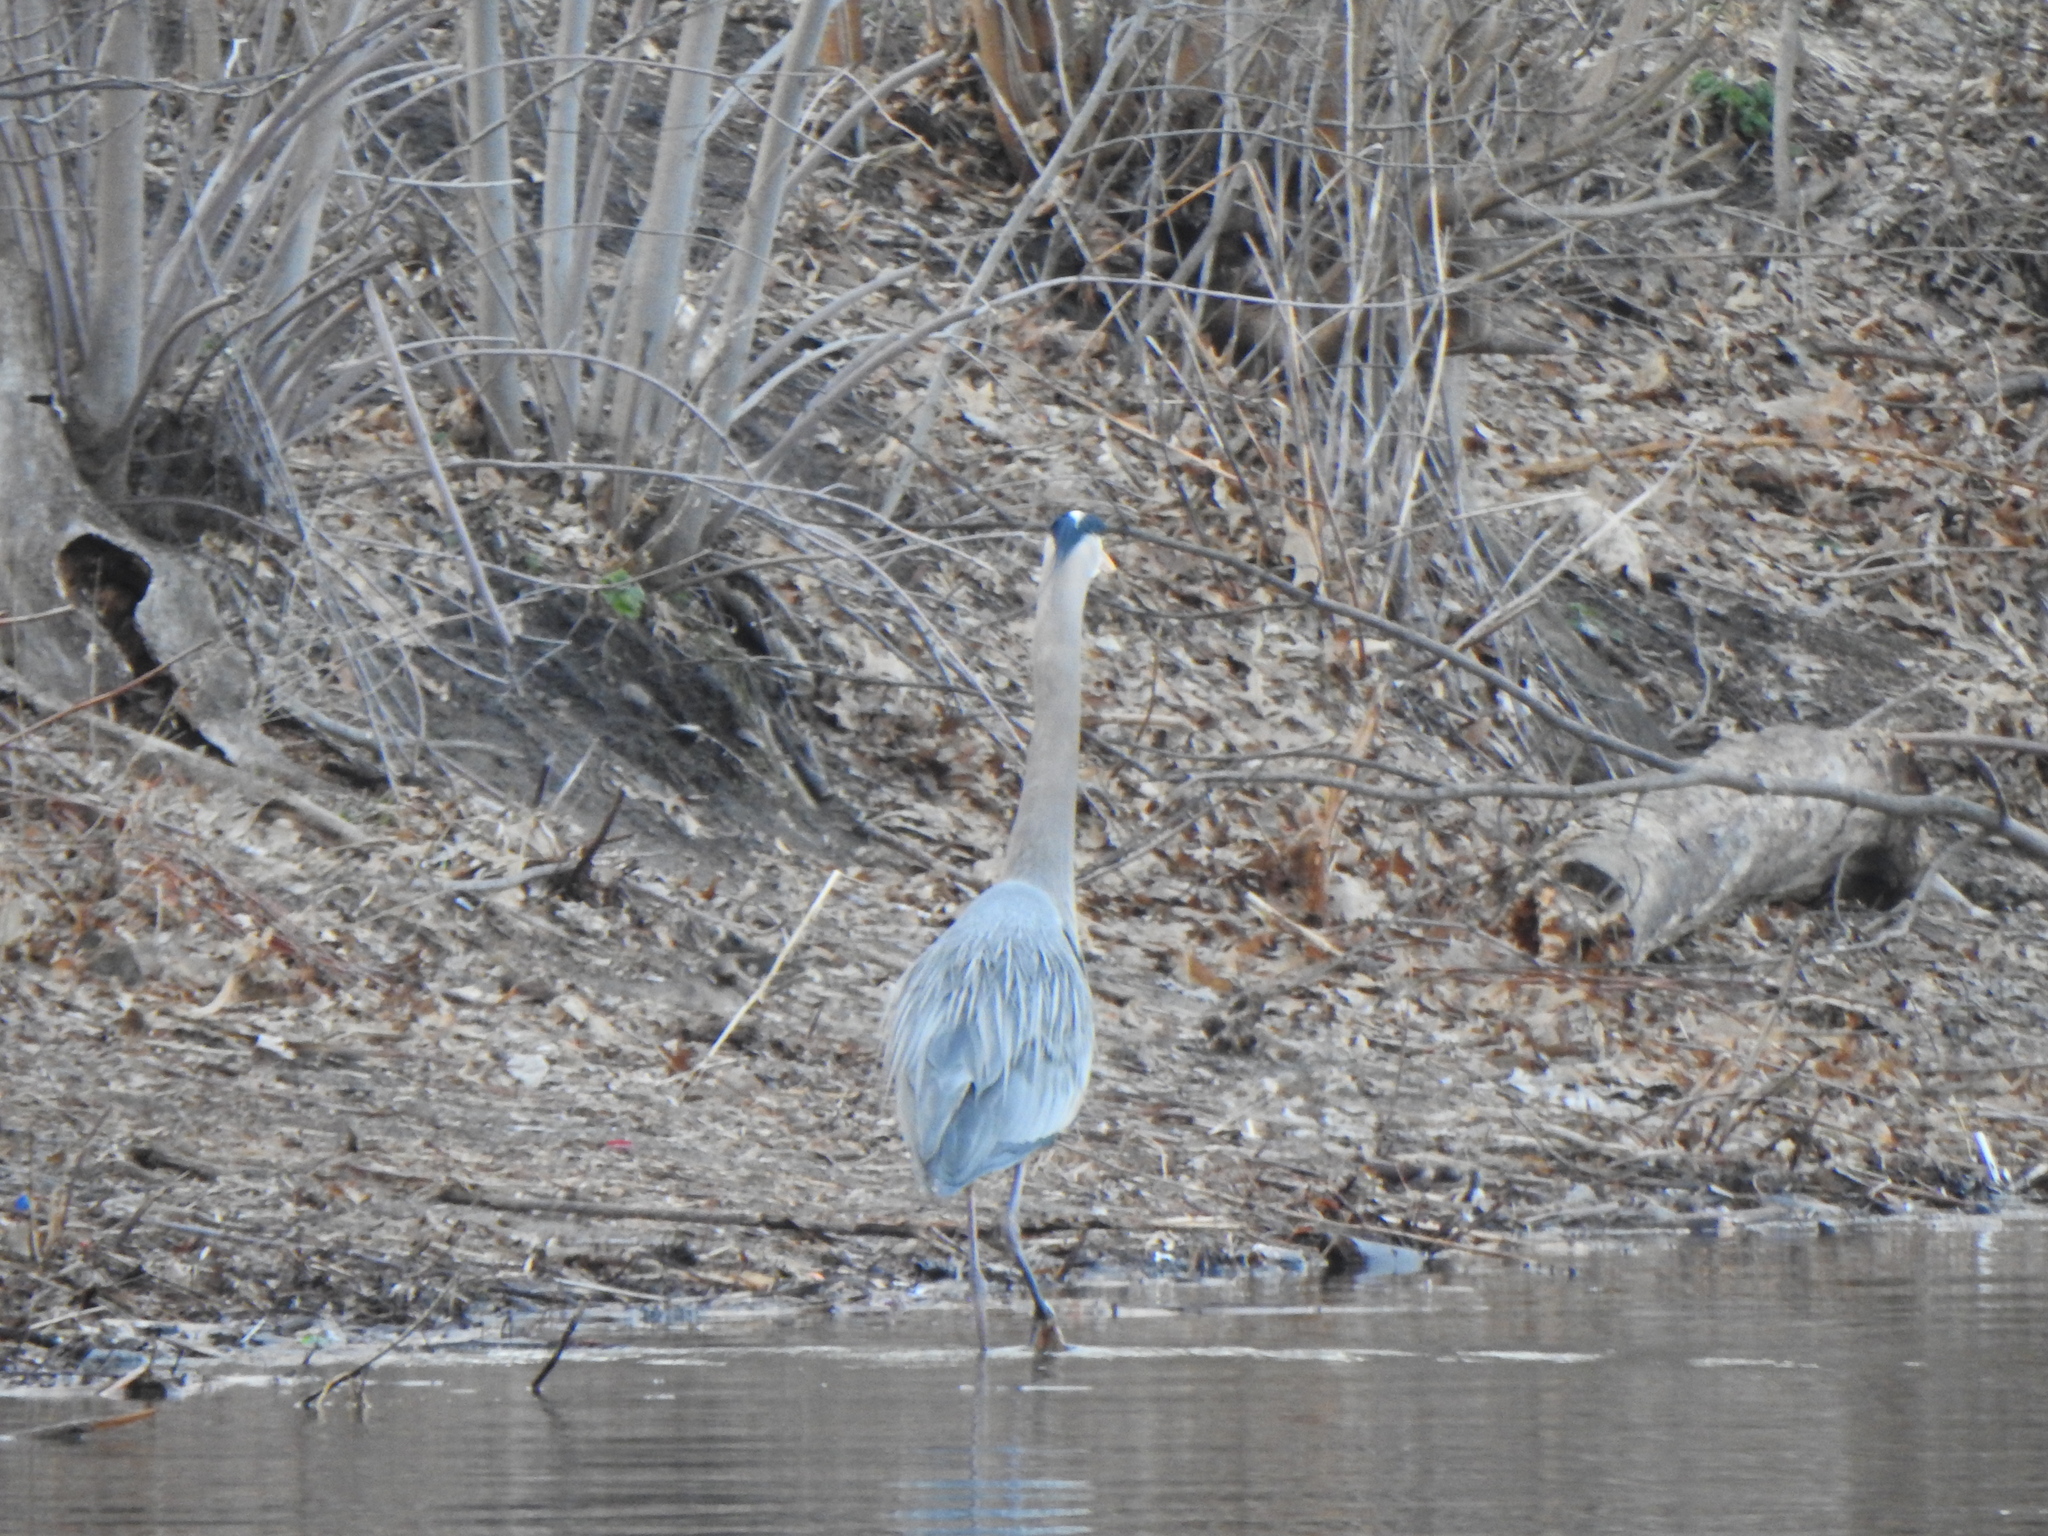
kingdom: Animalia
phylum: Chordata
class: Aves
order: Pelecaniformes
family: Ardeidae
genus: Ardea
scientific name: Ardea herodias
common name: Great blue heron
